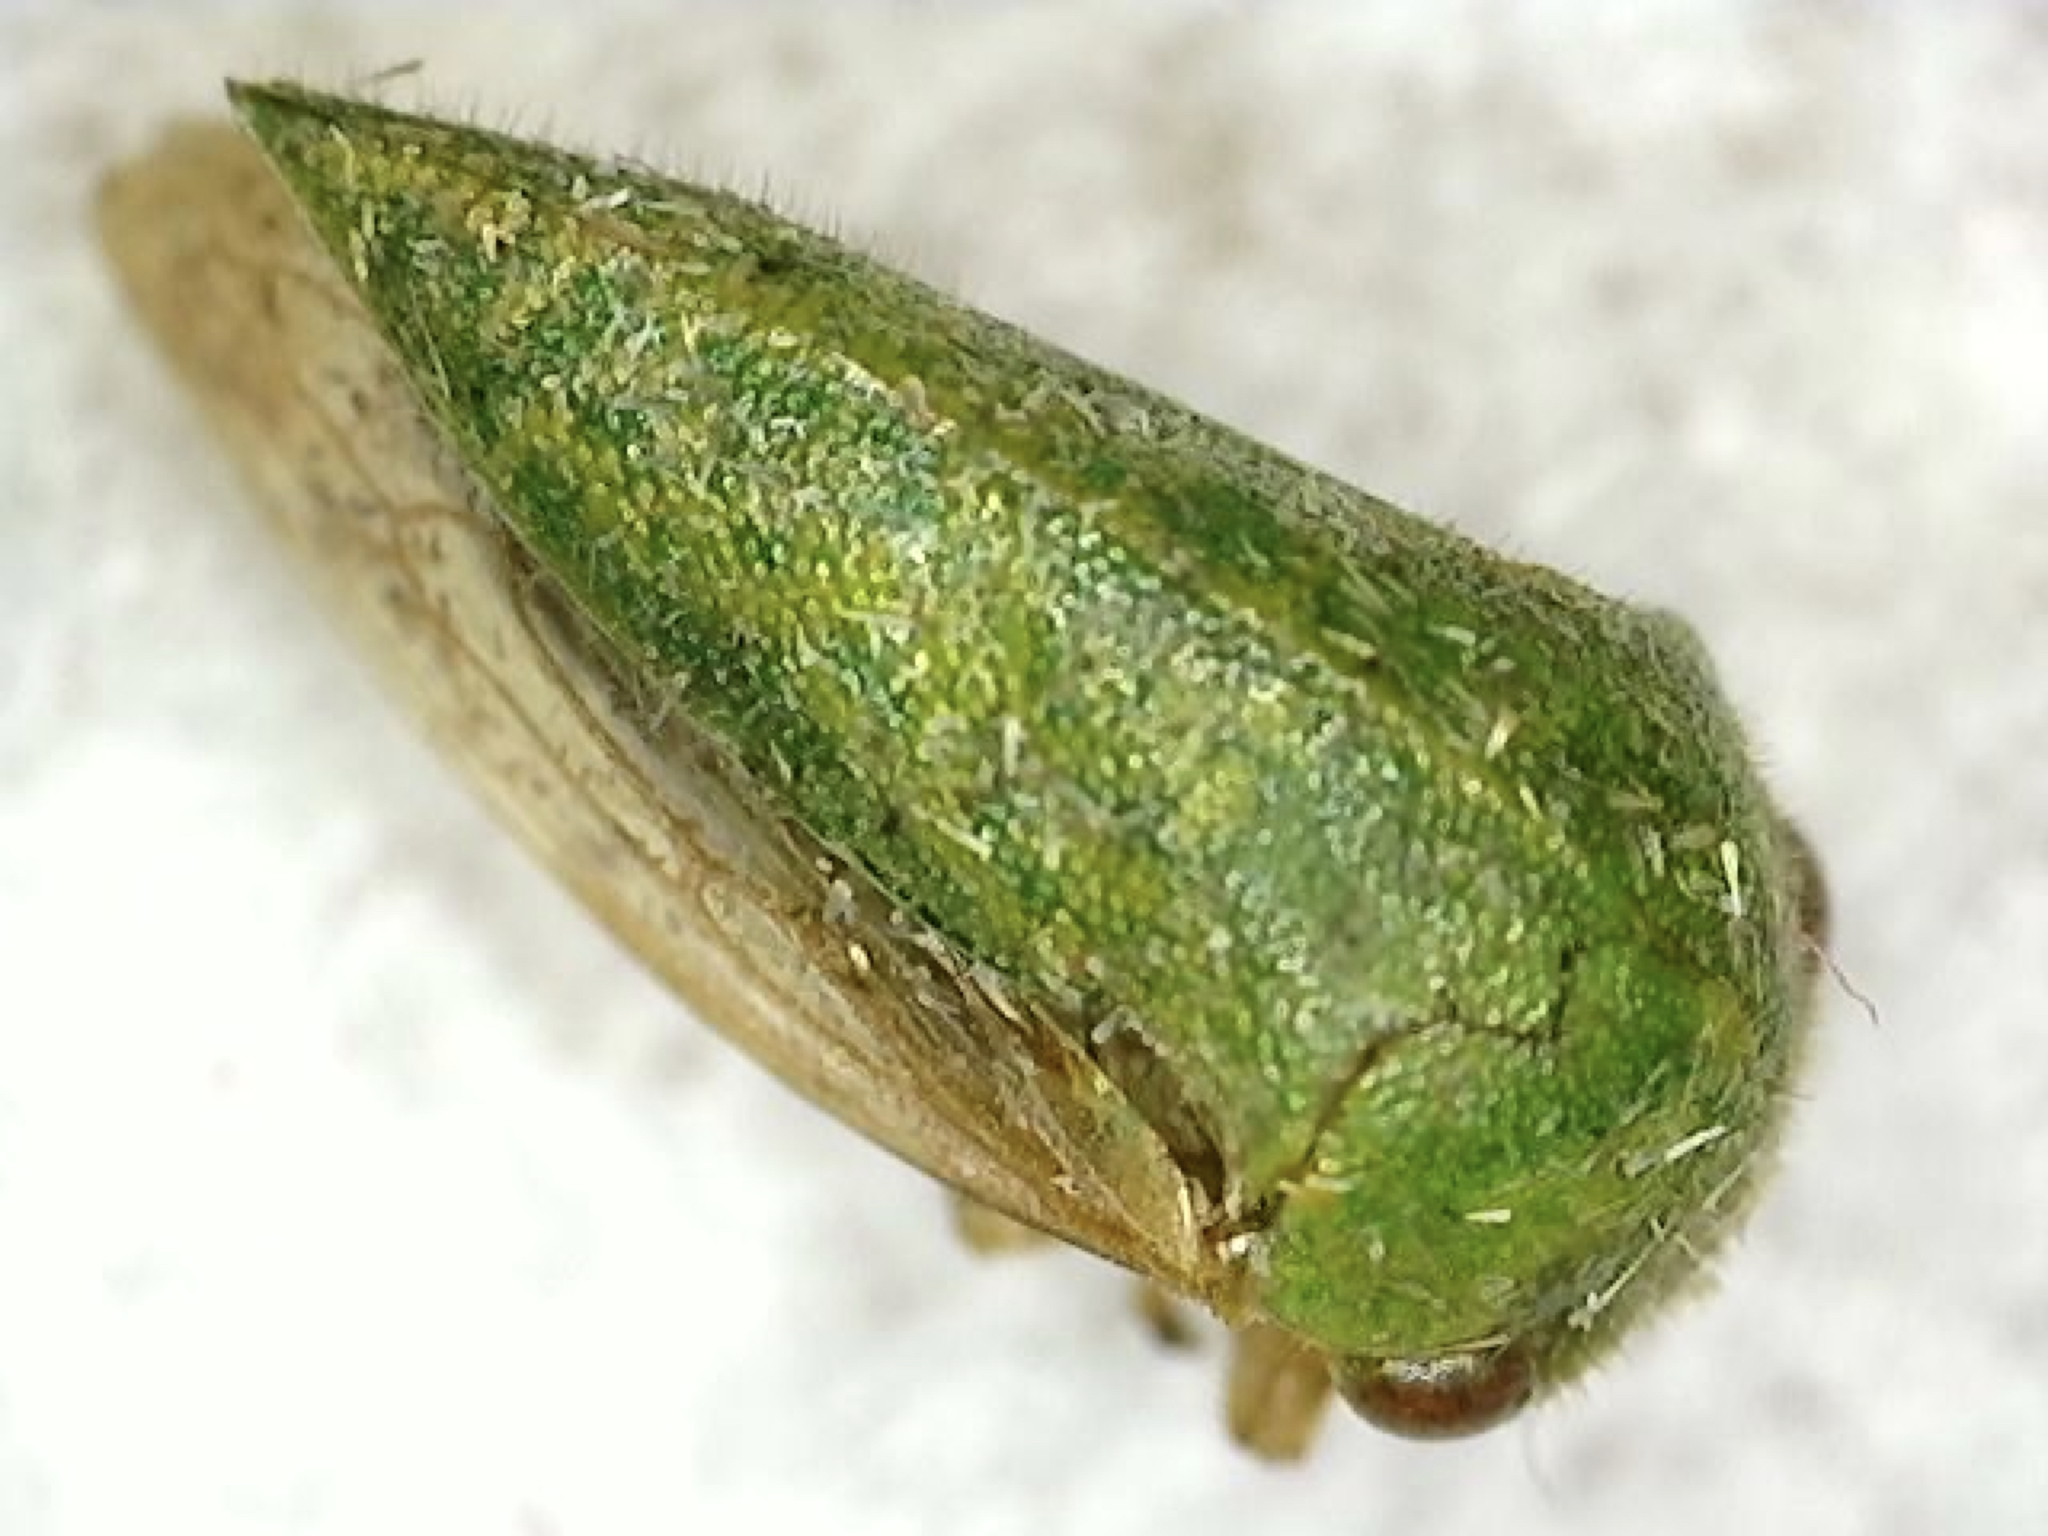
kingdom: Animalia
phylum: Arthropoda
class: Insecta
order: Hemiptera
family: Membracidae
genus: Ophiderma
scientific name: Ophiderma evelyna
